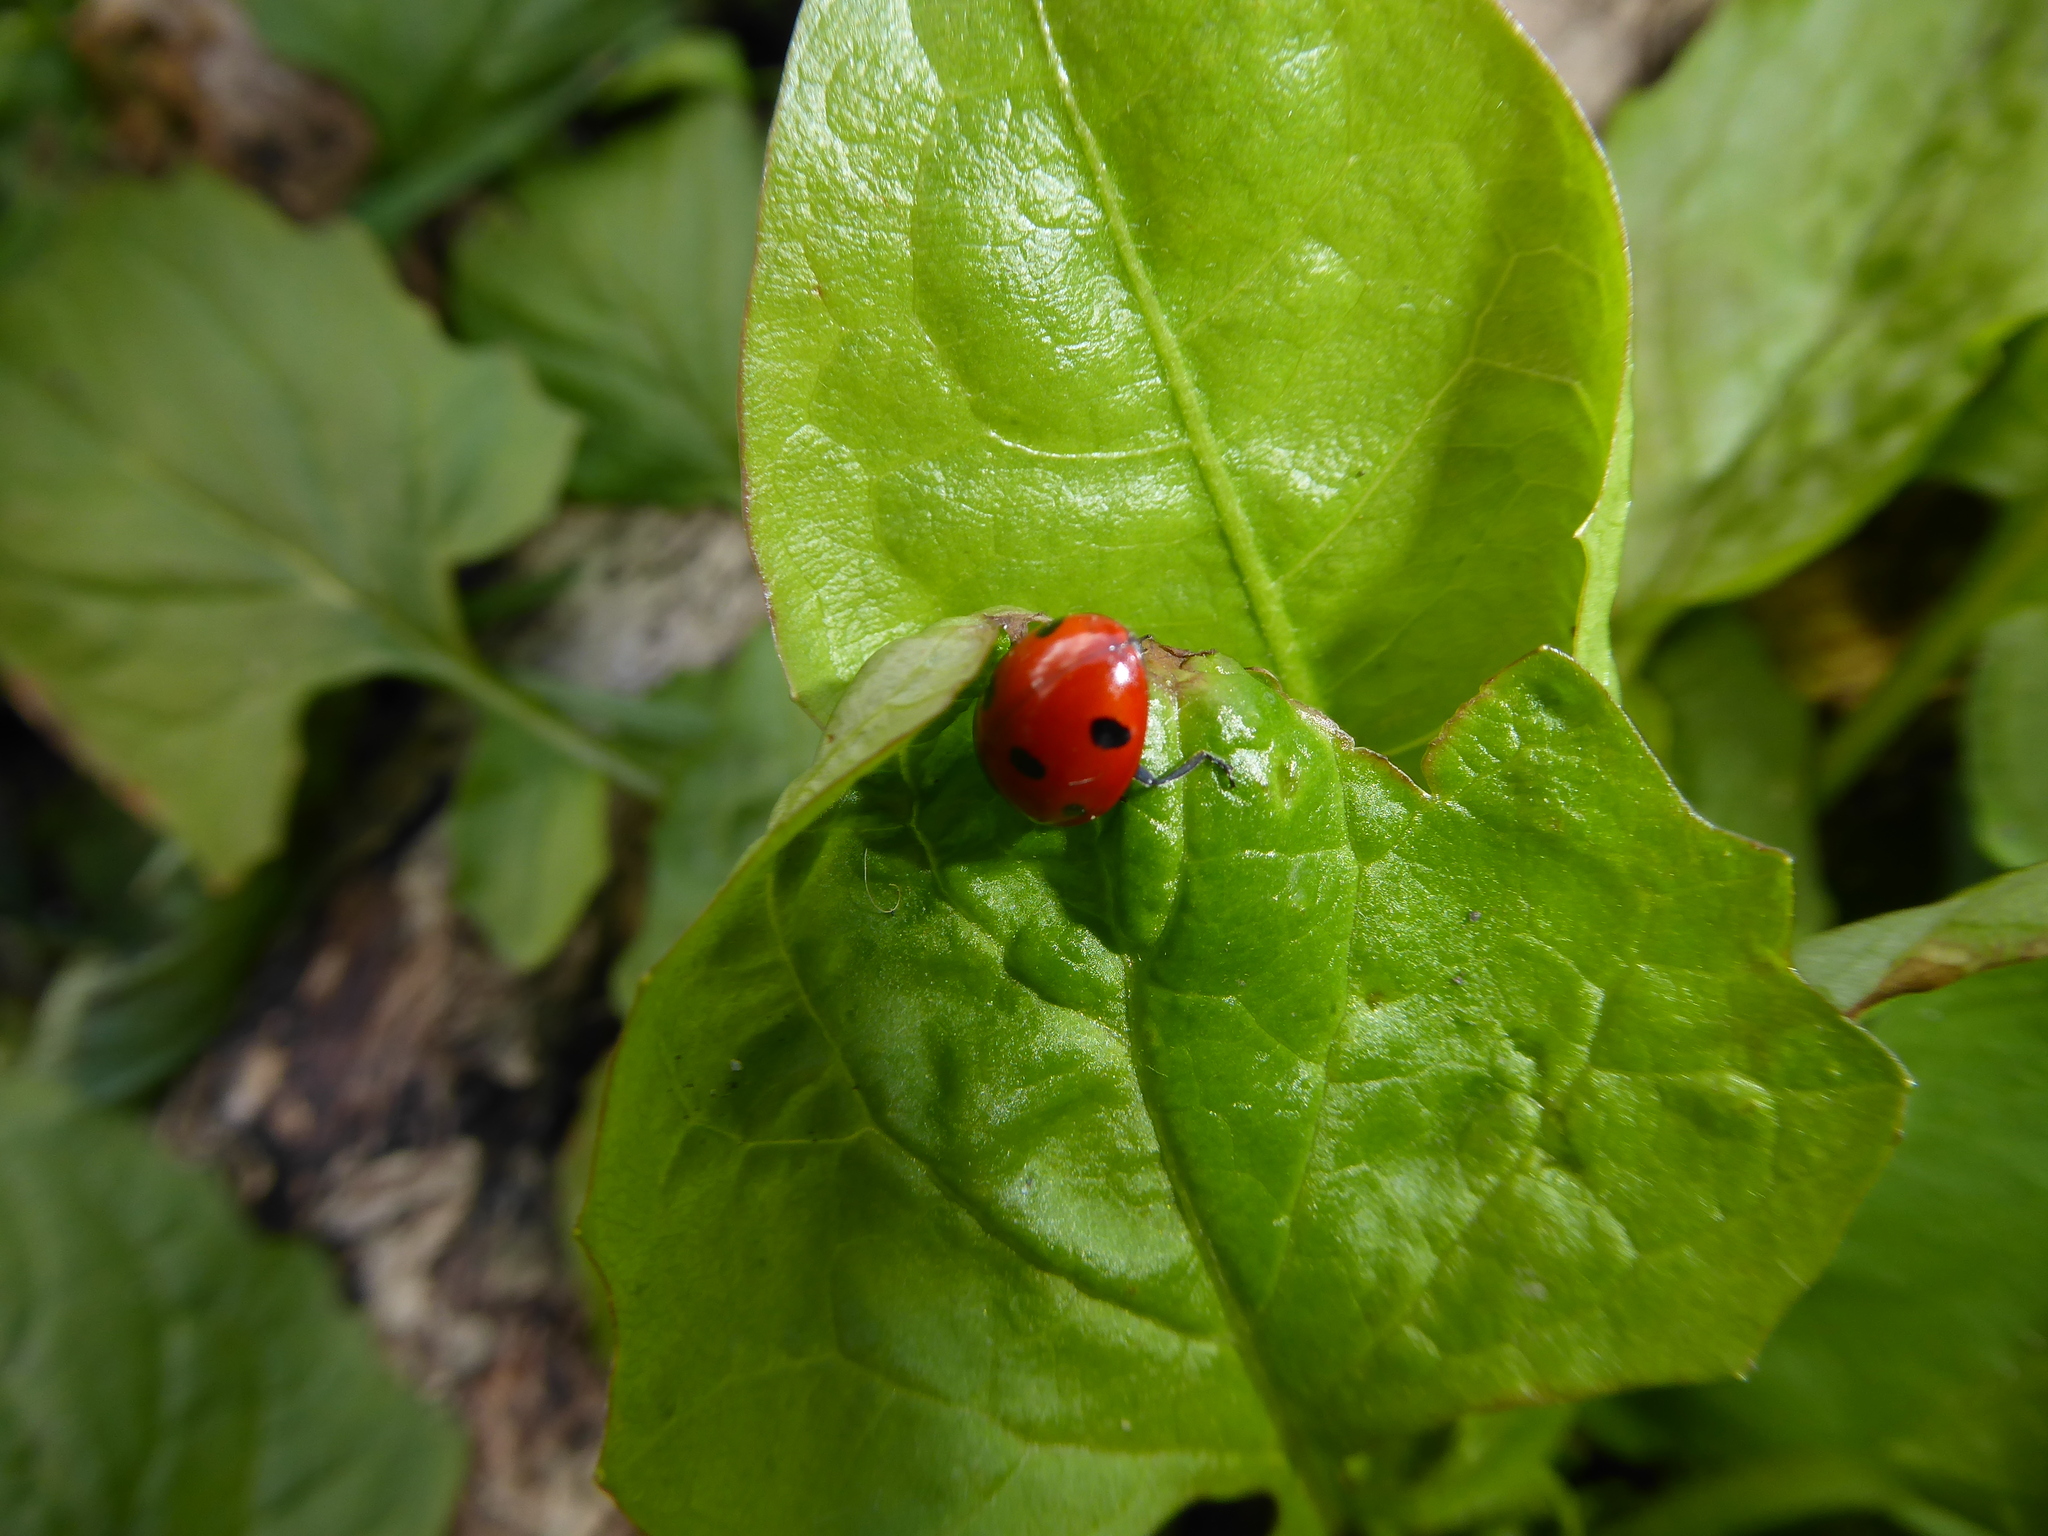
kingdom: Animalia
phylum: Arthropoda
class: Insecta
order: Coleoptera
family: Coccinellidae
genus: Coccinella
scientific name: Coccinella septempunctata
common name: Sevenspotted lady beetle
